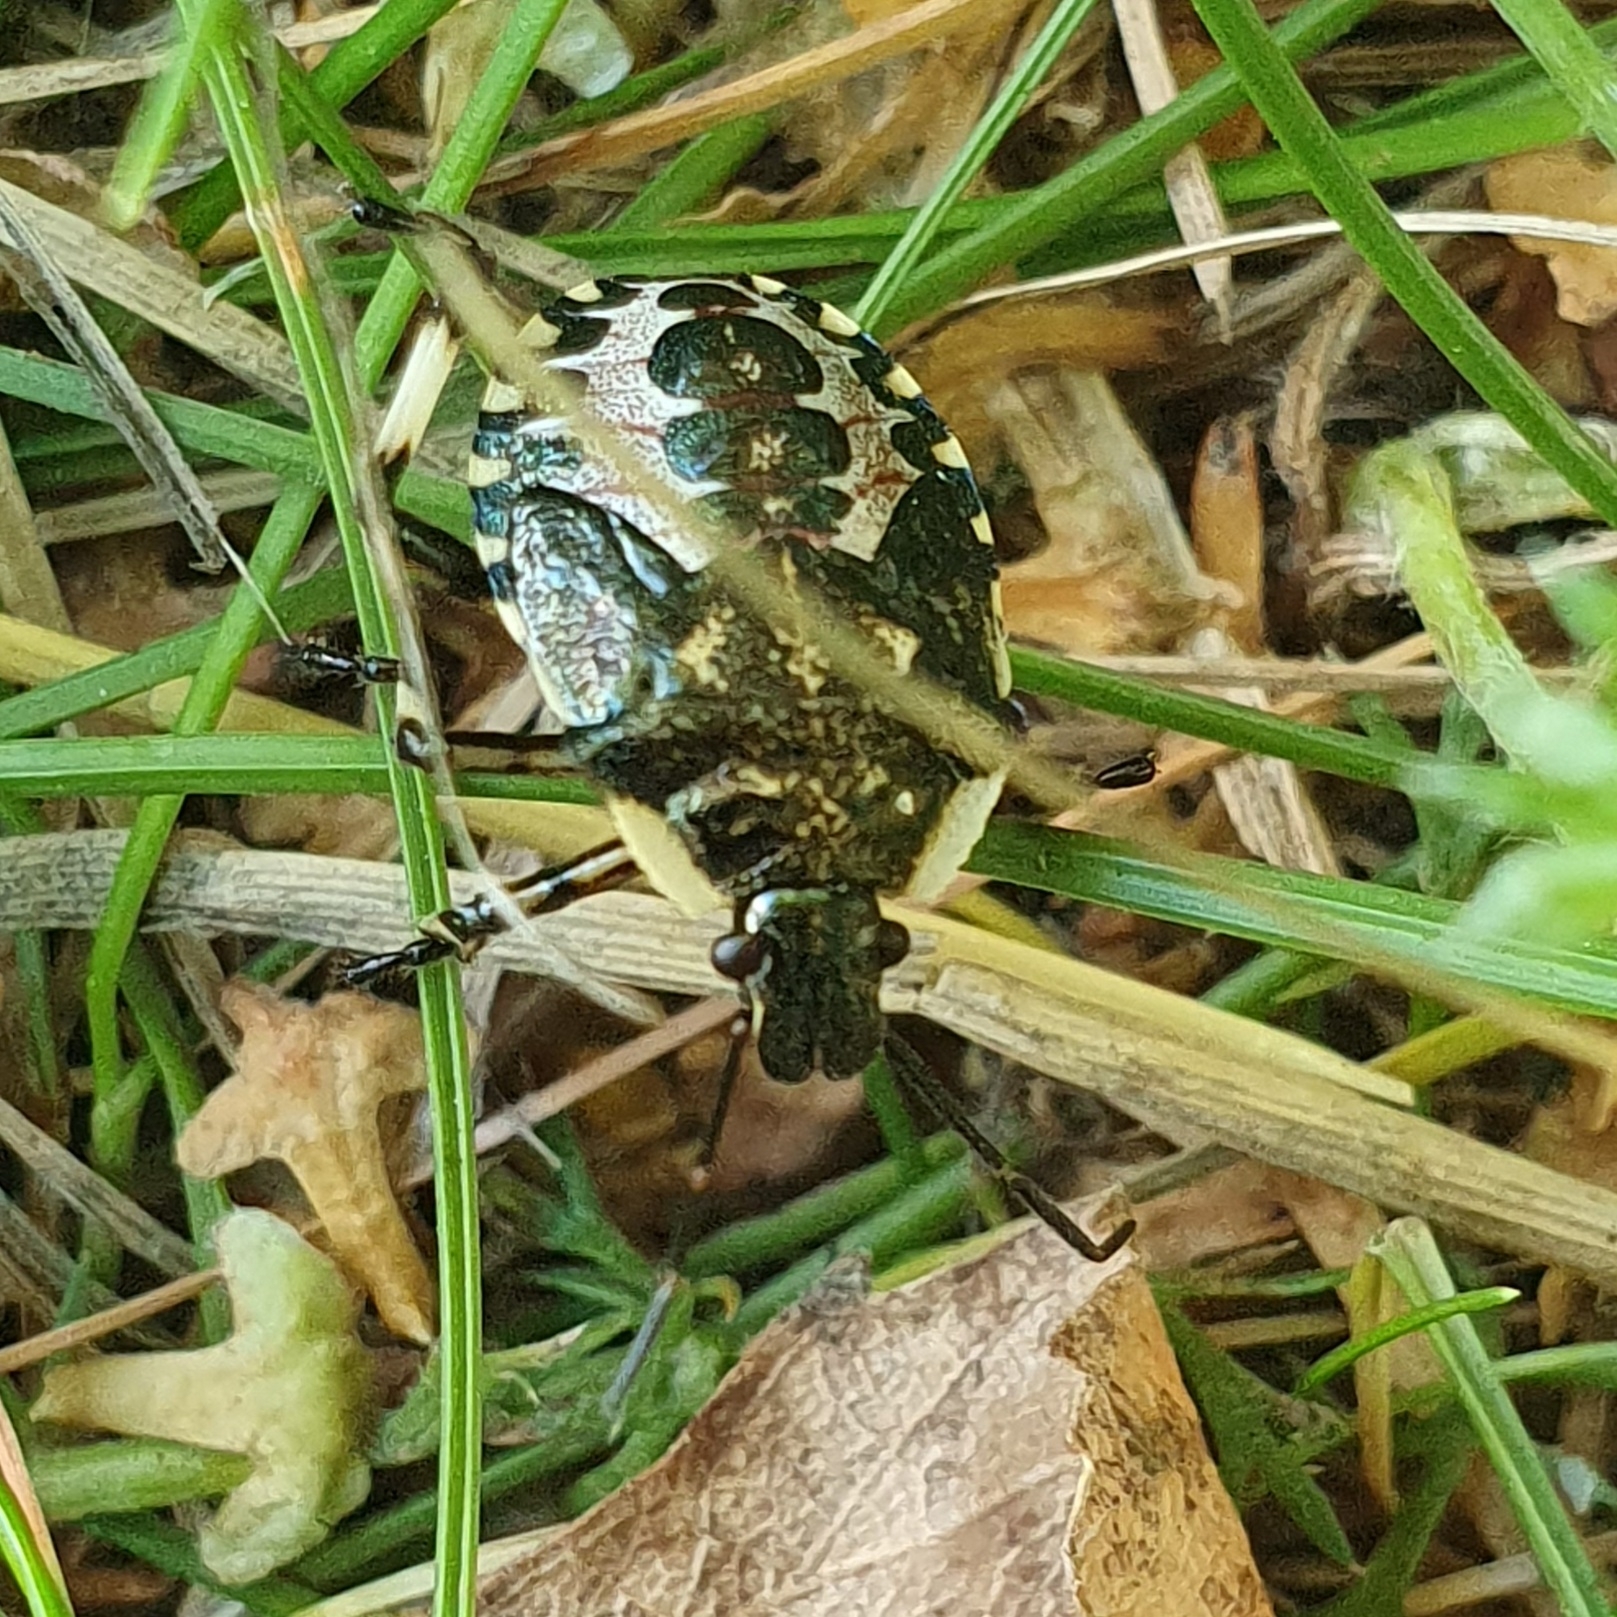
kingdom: Animalia
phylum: Arthropoda
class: Insecta
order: Hemiptera
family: Pentatomidae
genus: Pinthaeus
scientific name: Pinthaeus sanguinipes
